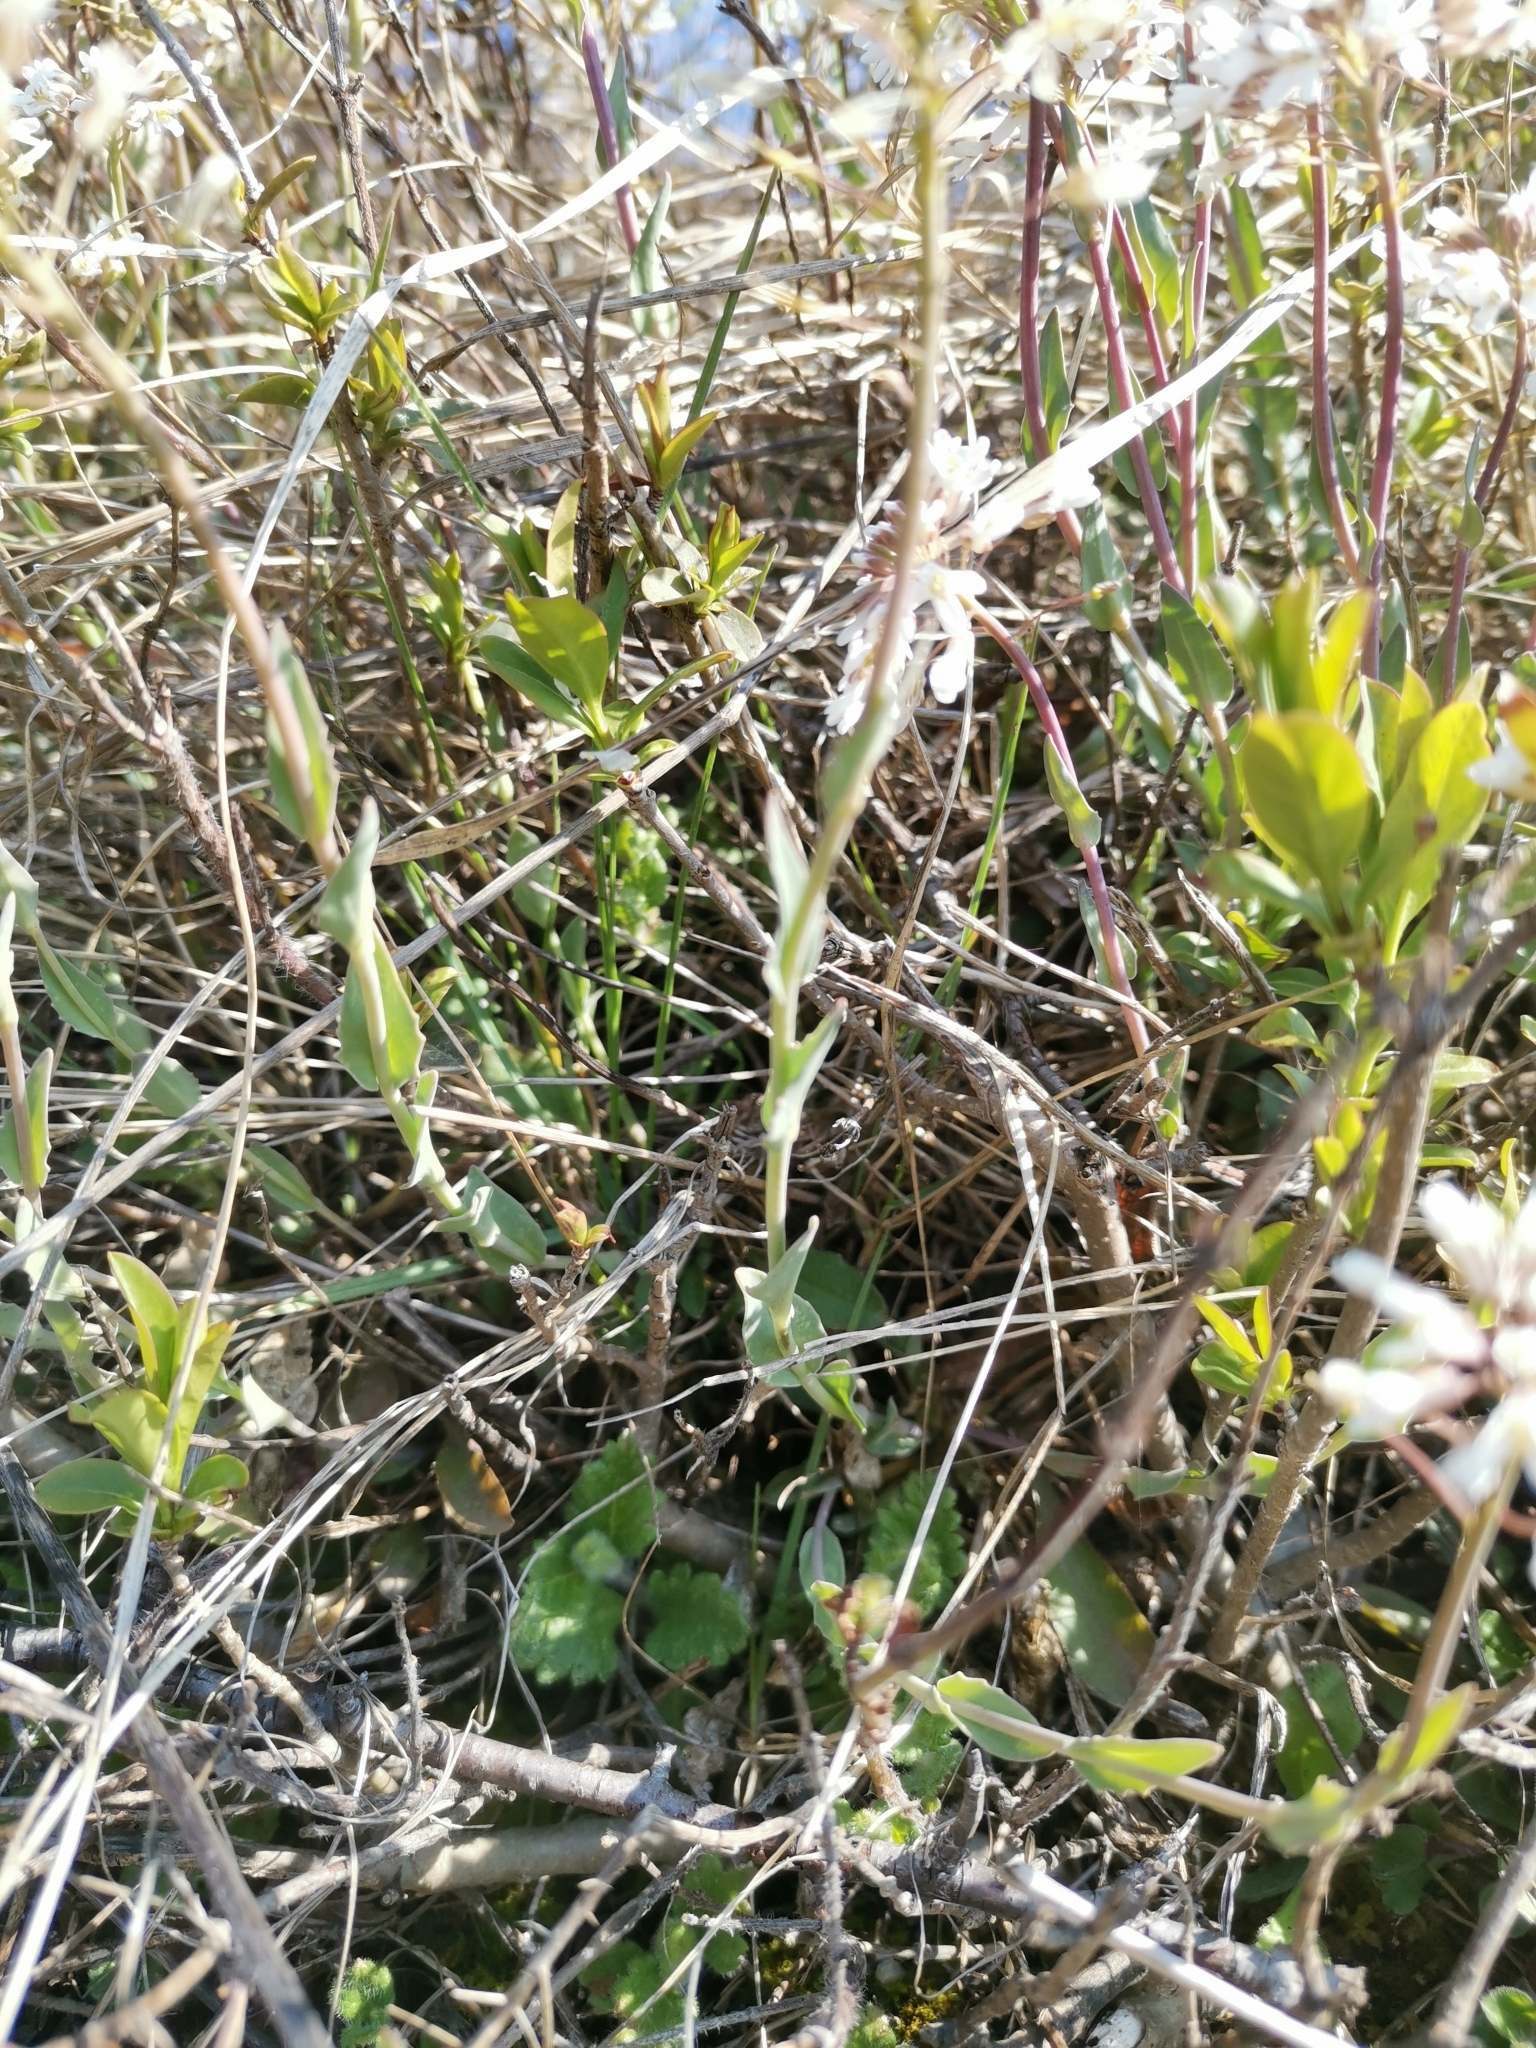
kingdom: Plantae
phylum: Tracheophyta
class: Magnoliopsida
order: Brassicales
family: Brassicaceae
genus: Noccaea
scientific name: Noccaea praecox
